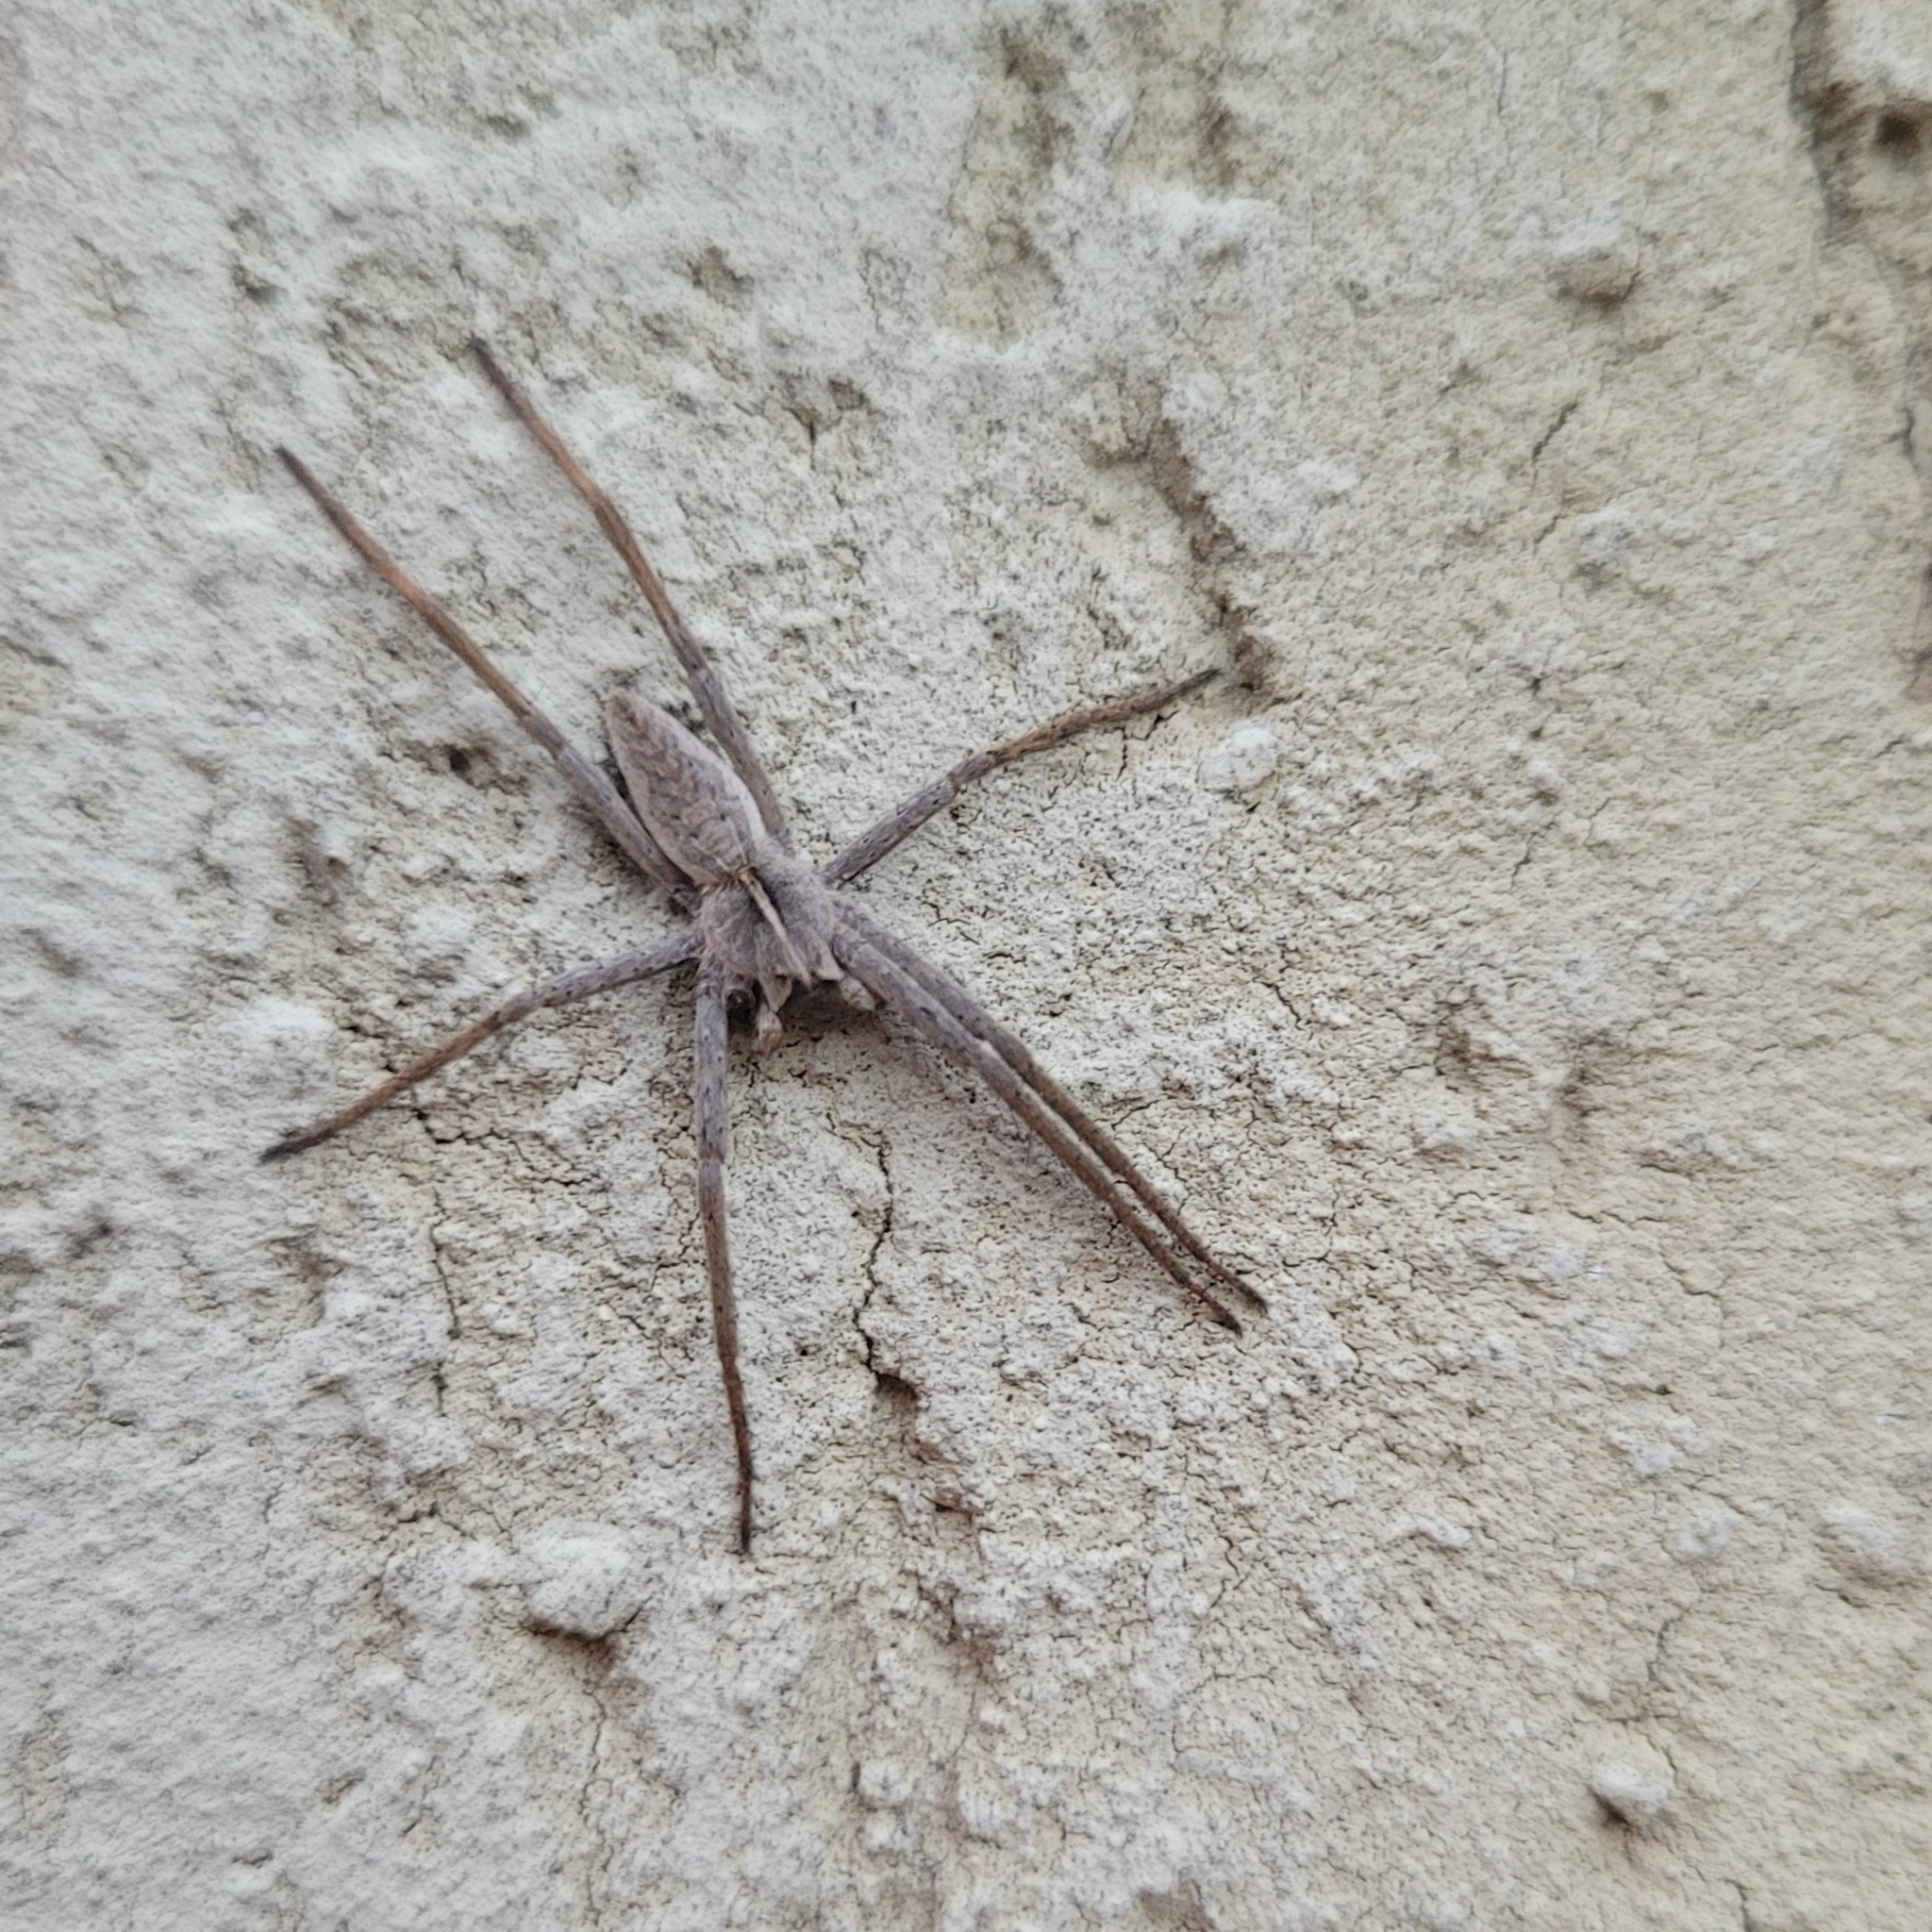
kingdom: Animalia
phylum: Arthropoda
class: Arachnida
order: Araneae
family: Pisauridae
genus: Pisaura
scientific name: Pisaura mirabilis
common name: Tent spider
